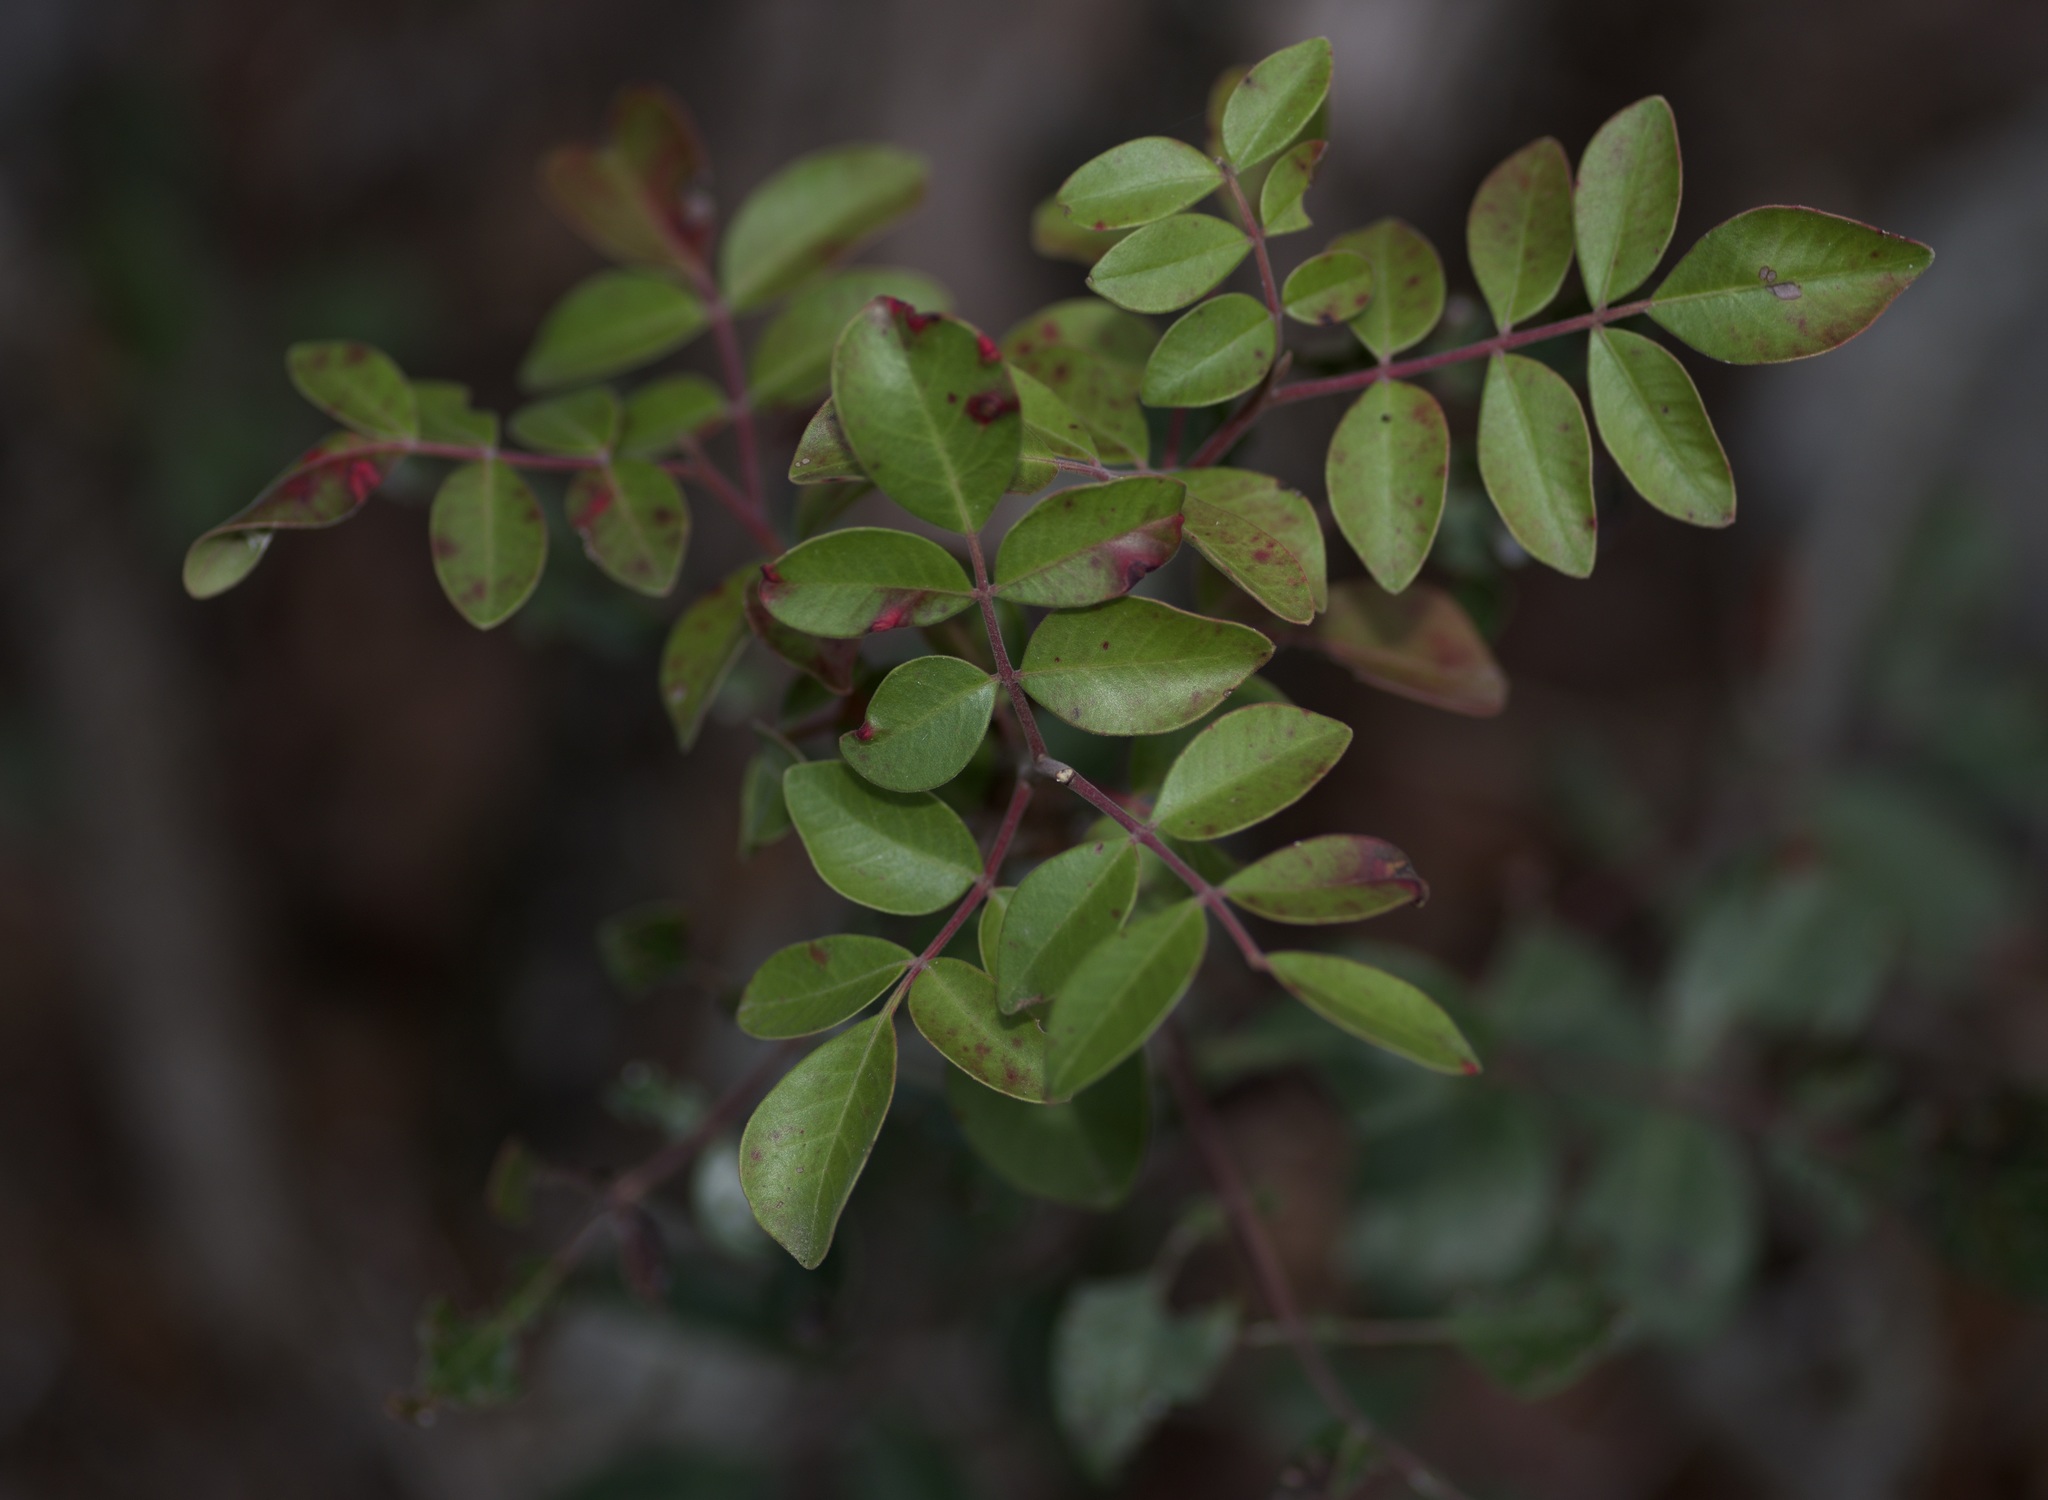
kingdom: Plantae
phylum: Tracheophyta
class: Magnoliopsida
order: Sapindales
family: Anacardiaceae
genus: Rhus
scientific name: Rhus virens
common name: Evergreen sumac
